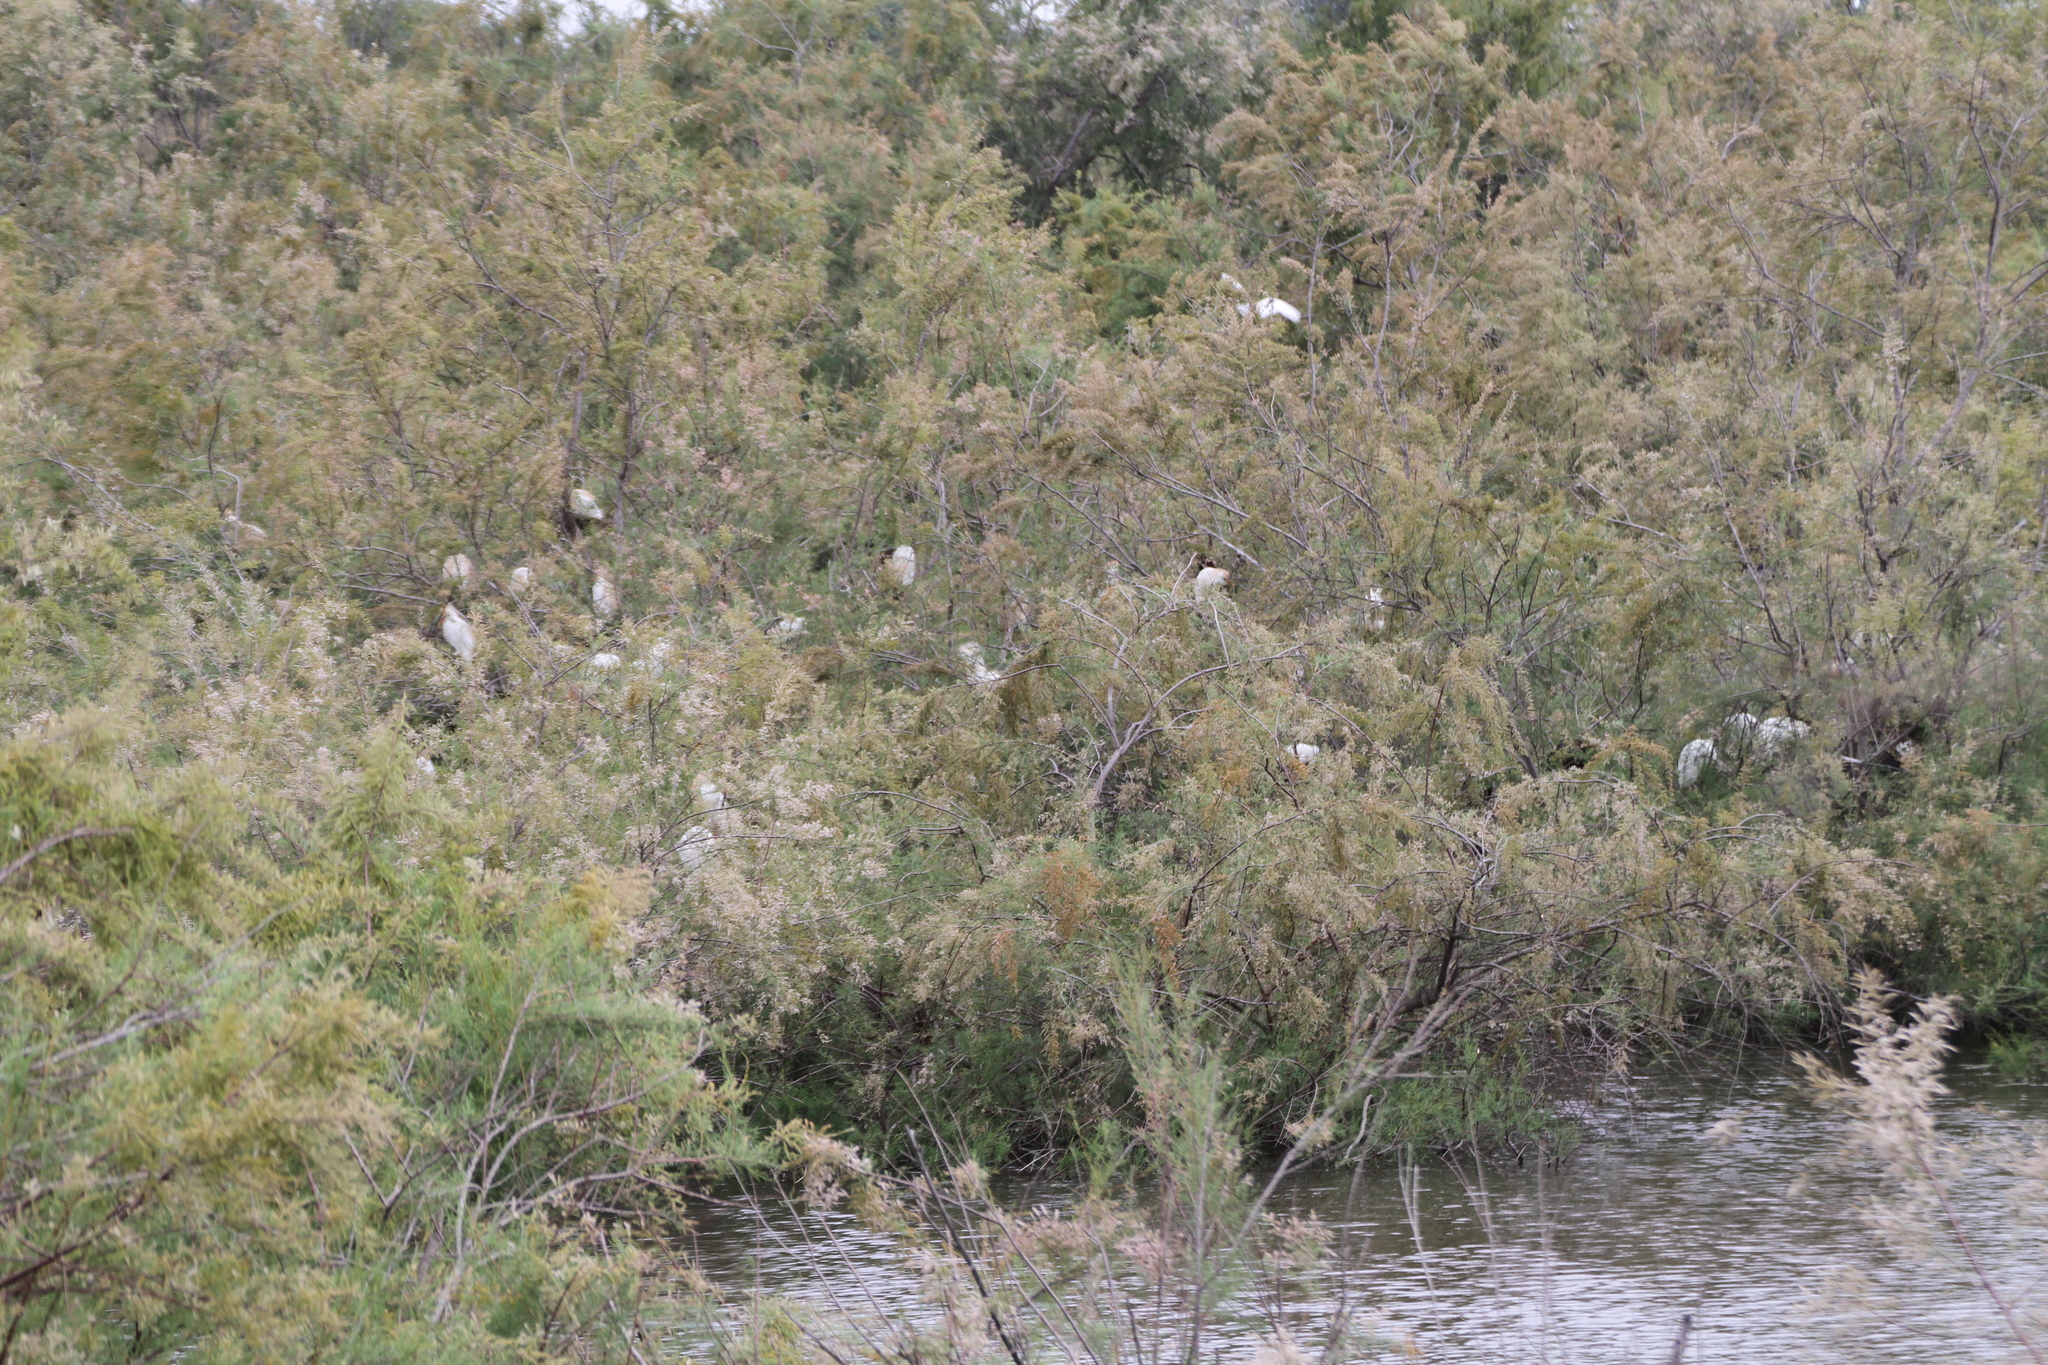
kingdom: Animalia
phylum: Chordata
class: Aves
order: Pelecaniformes
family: Ardeidae
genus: Bubulcus
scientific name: Bubulcus ibis
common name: Cattle egret
